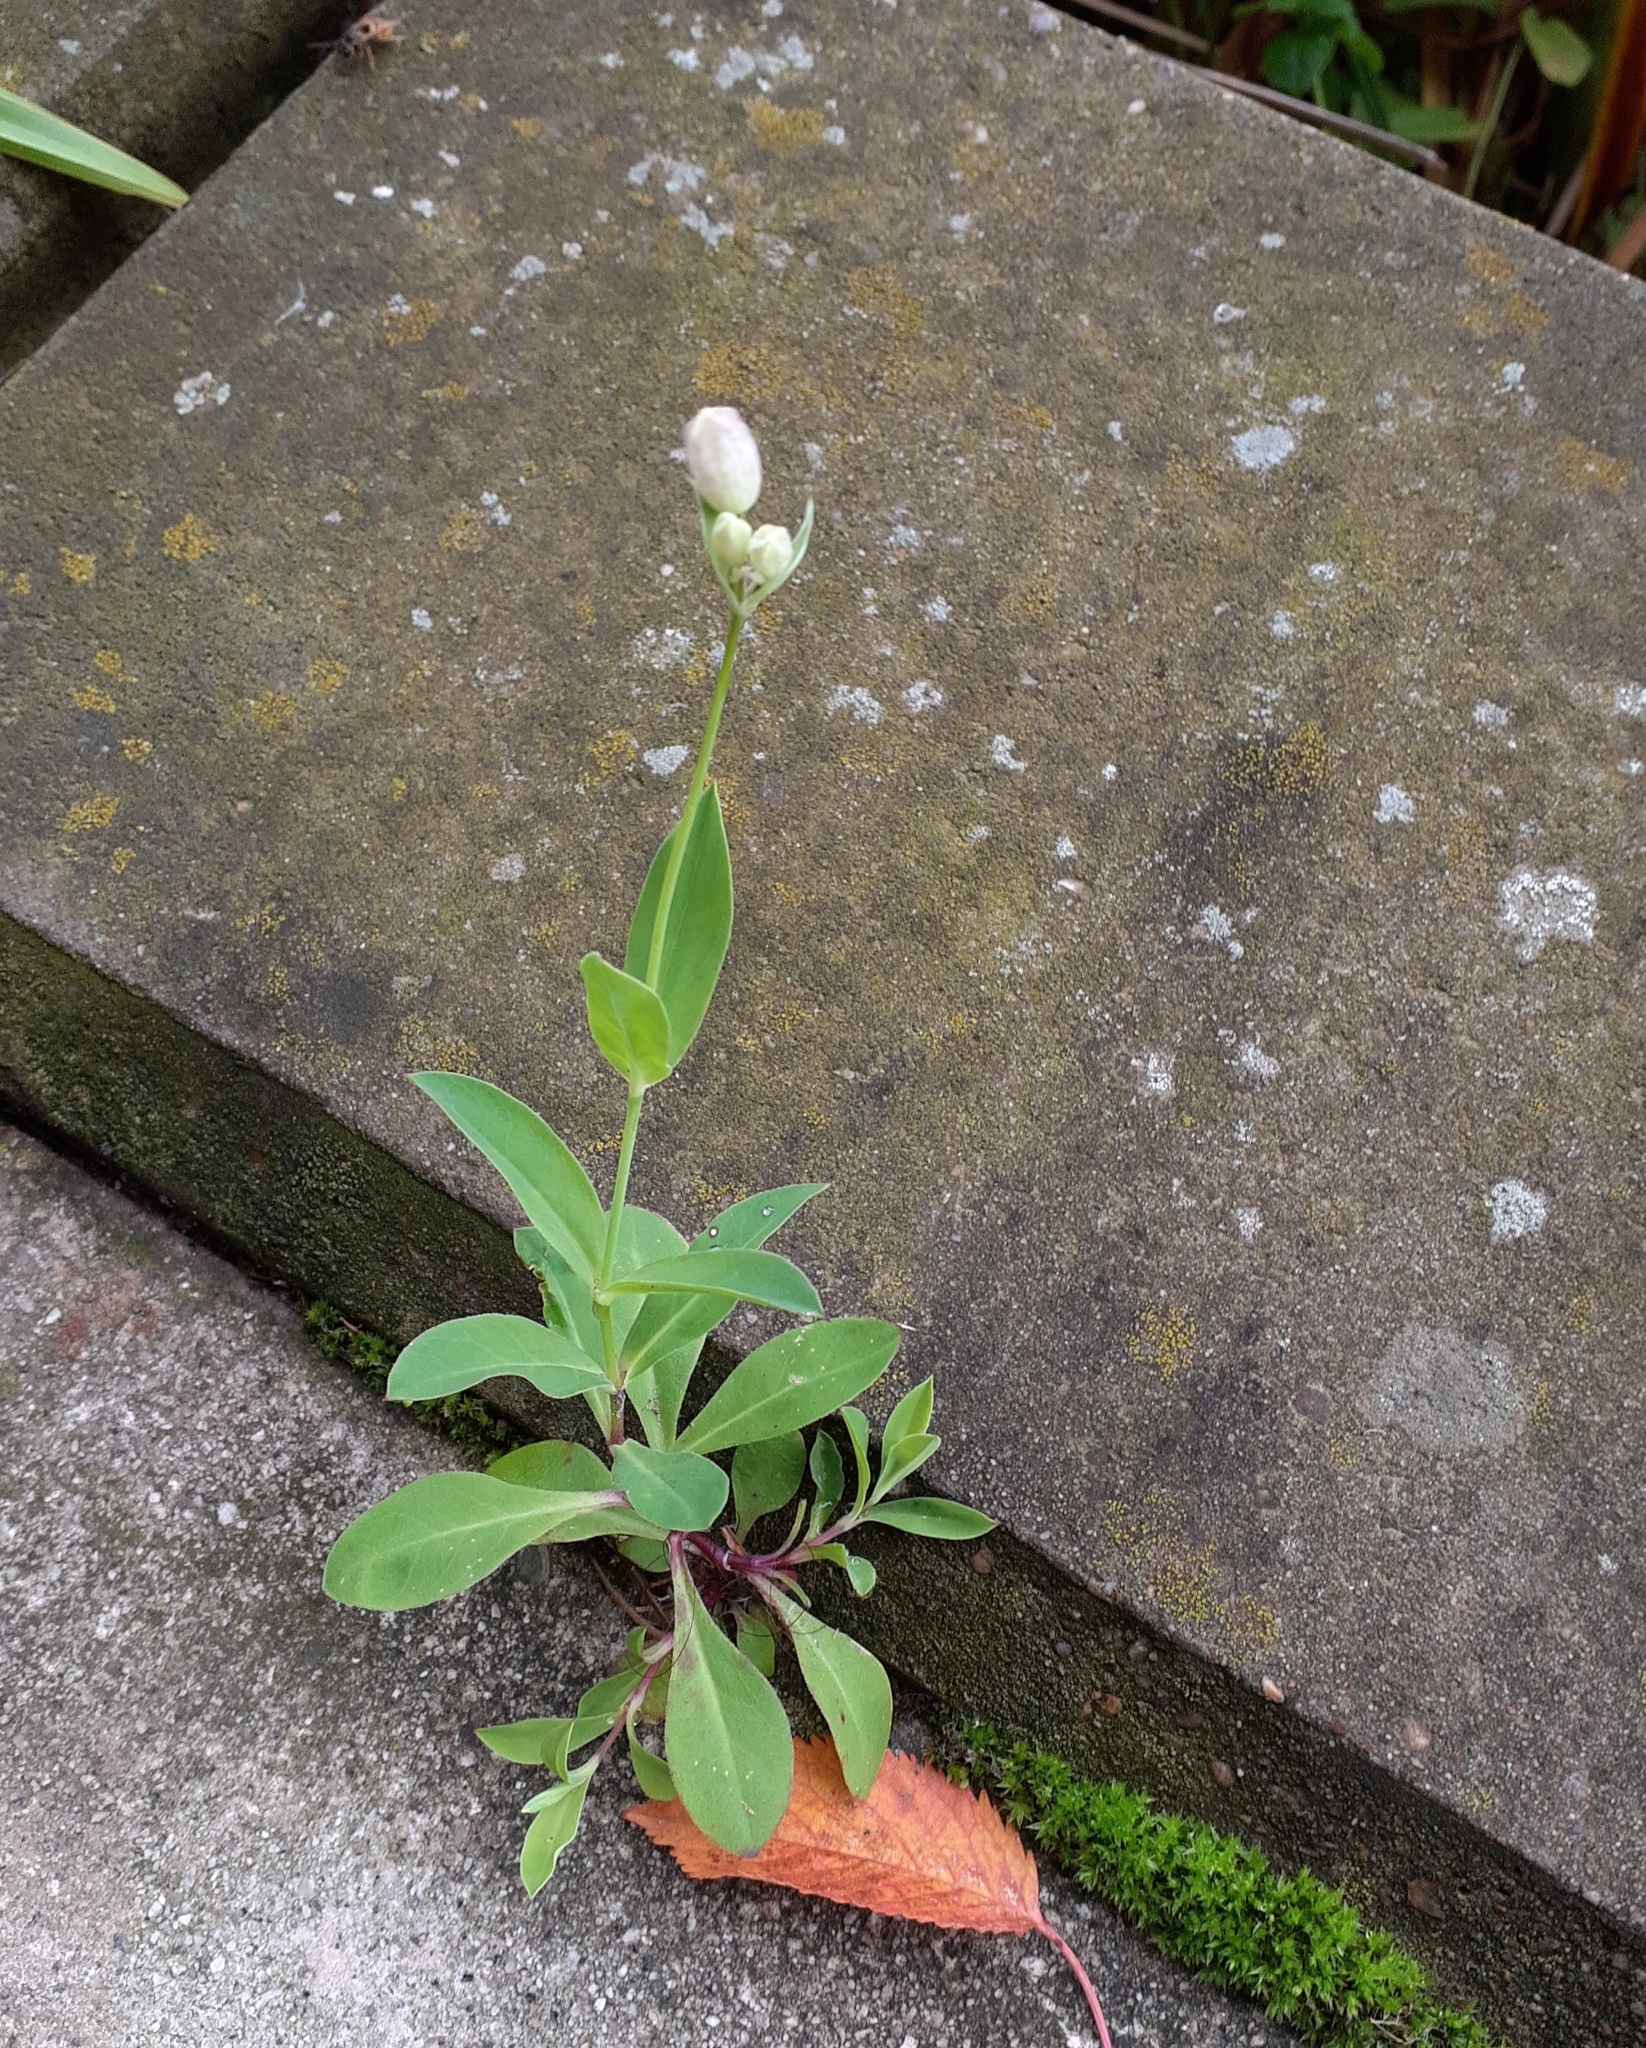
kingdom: Plantae
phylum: Tracheophyta
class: Magnoliopsida
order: Caryophyllales
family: Caryophyllaceae
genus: Silene
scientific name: Silene vulgaris
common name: Bladder campion
